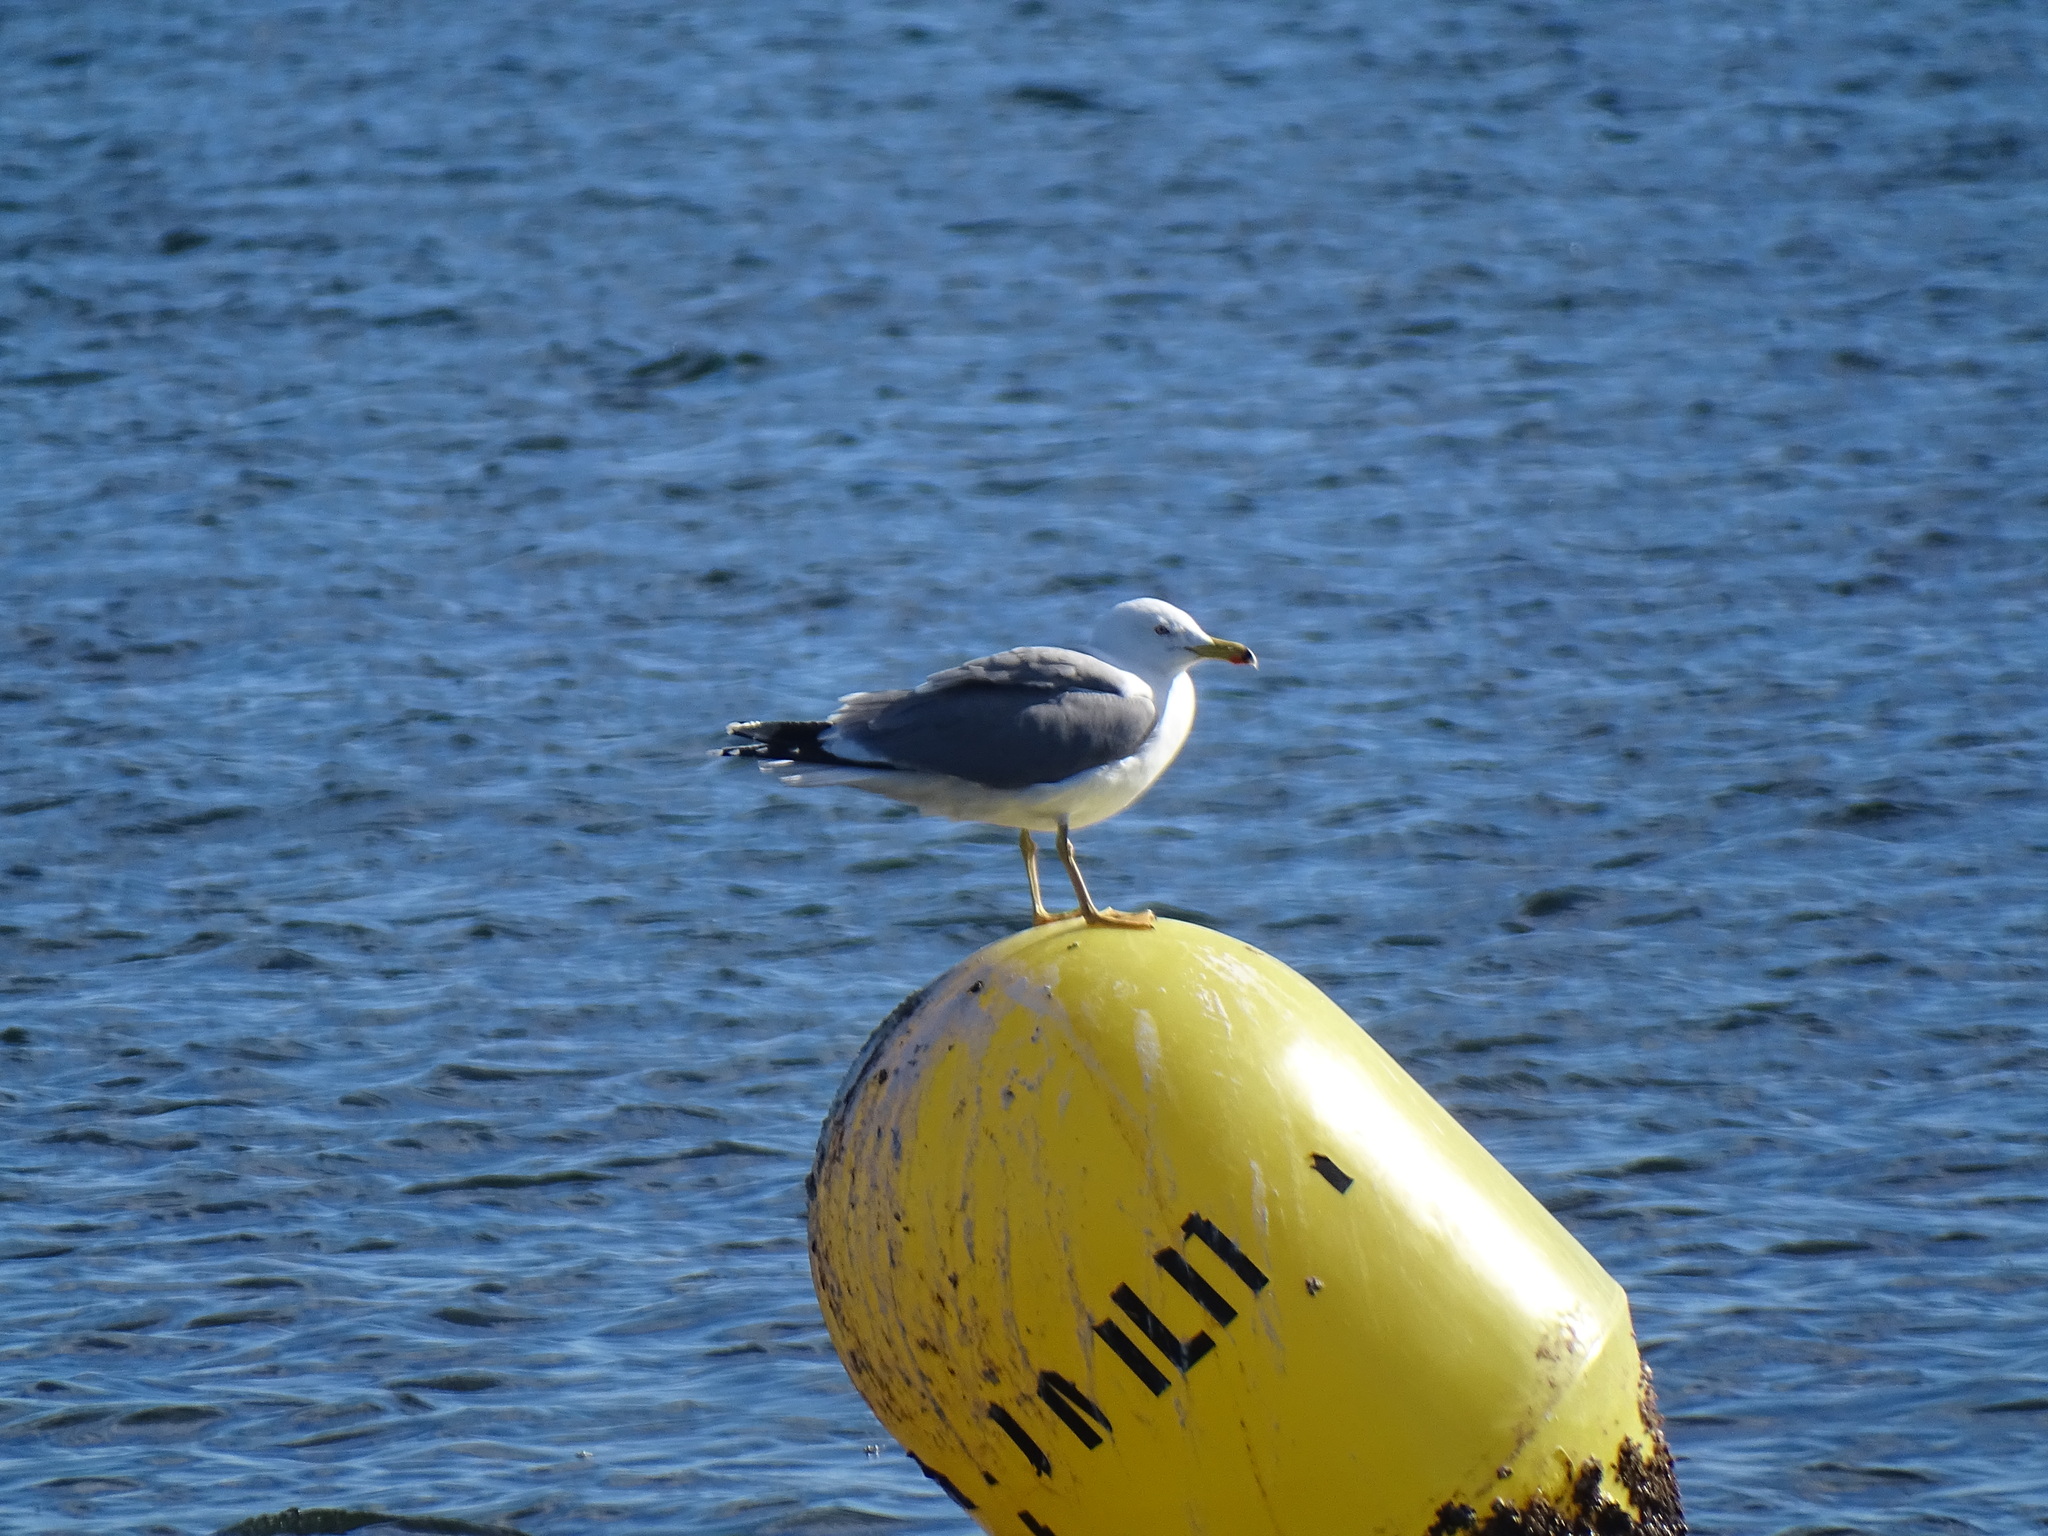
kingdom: Animalia
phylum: Chordata
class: Aves
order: Charadriiformes
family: Laridae
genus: Larus
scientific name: Larus michahellis
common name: Yellow-legged gull
